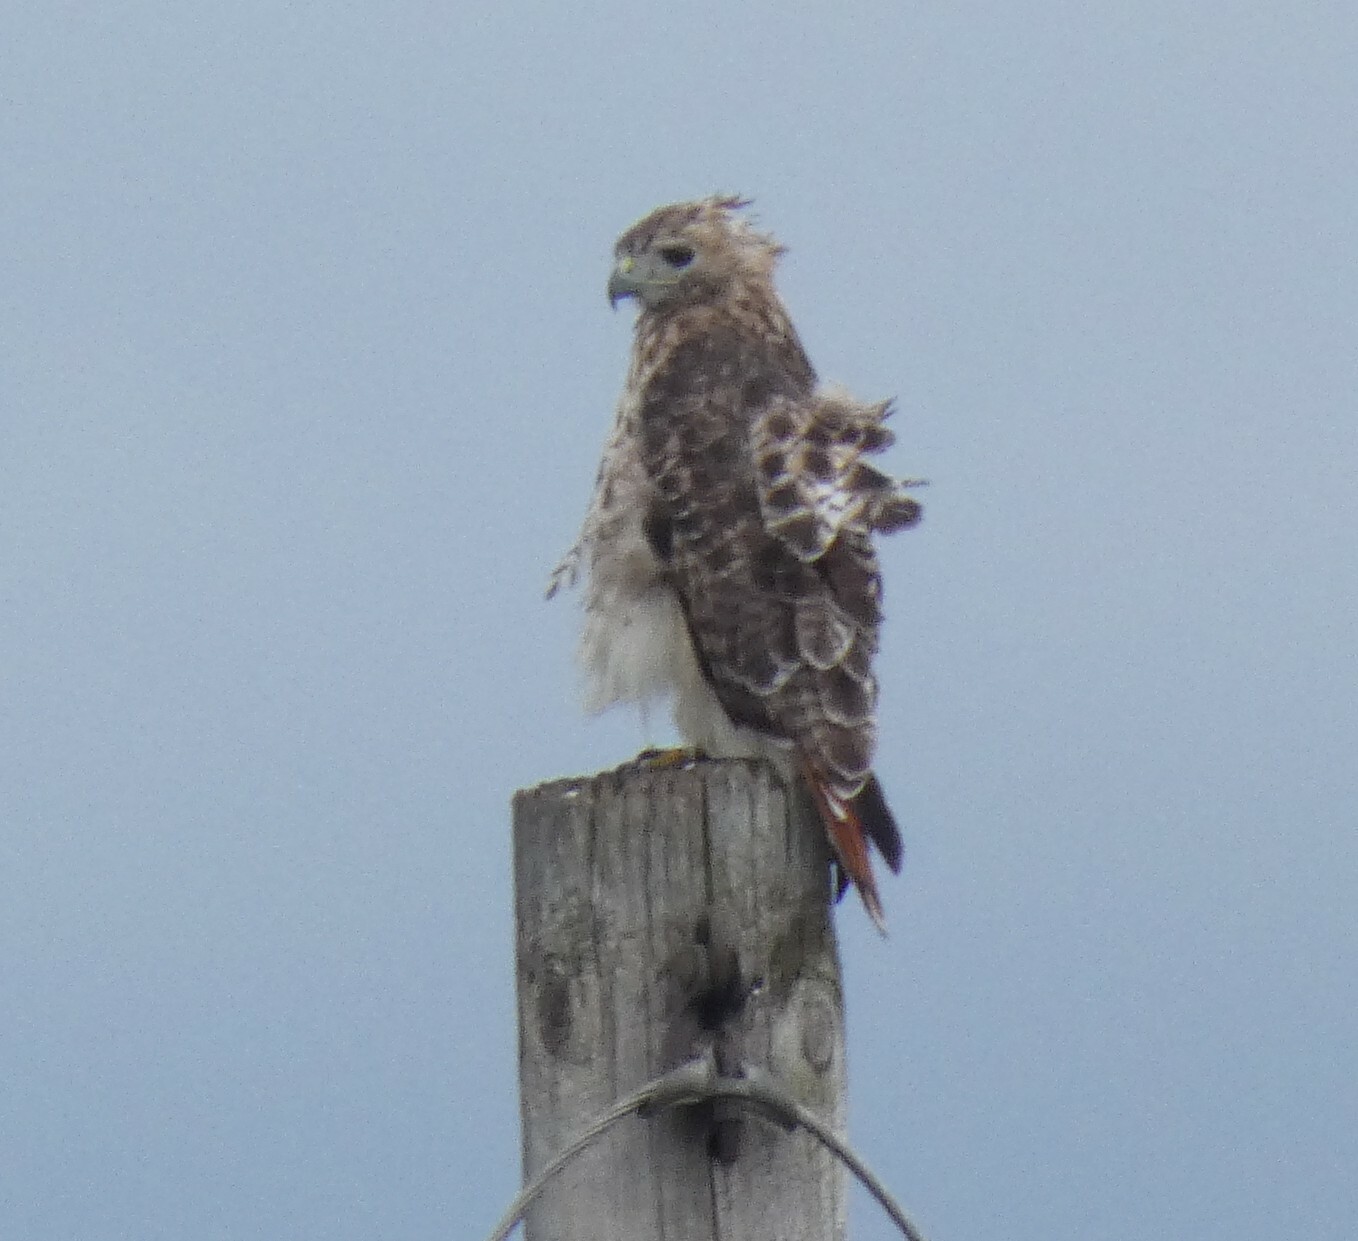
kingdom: Animalia
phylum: Chordata
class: Aves
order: Accipitriformes
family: Accipitridae
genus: Buteo
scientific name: Buteo jamaicensis
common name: Red-tailed hawk
